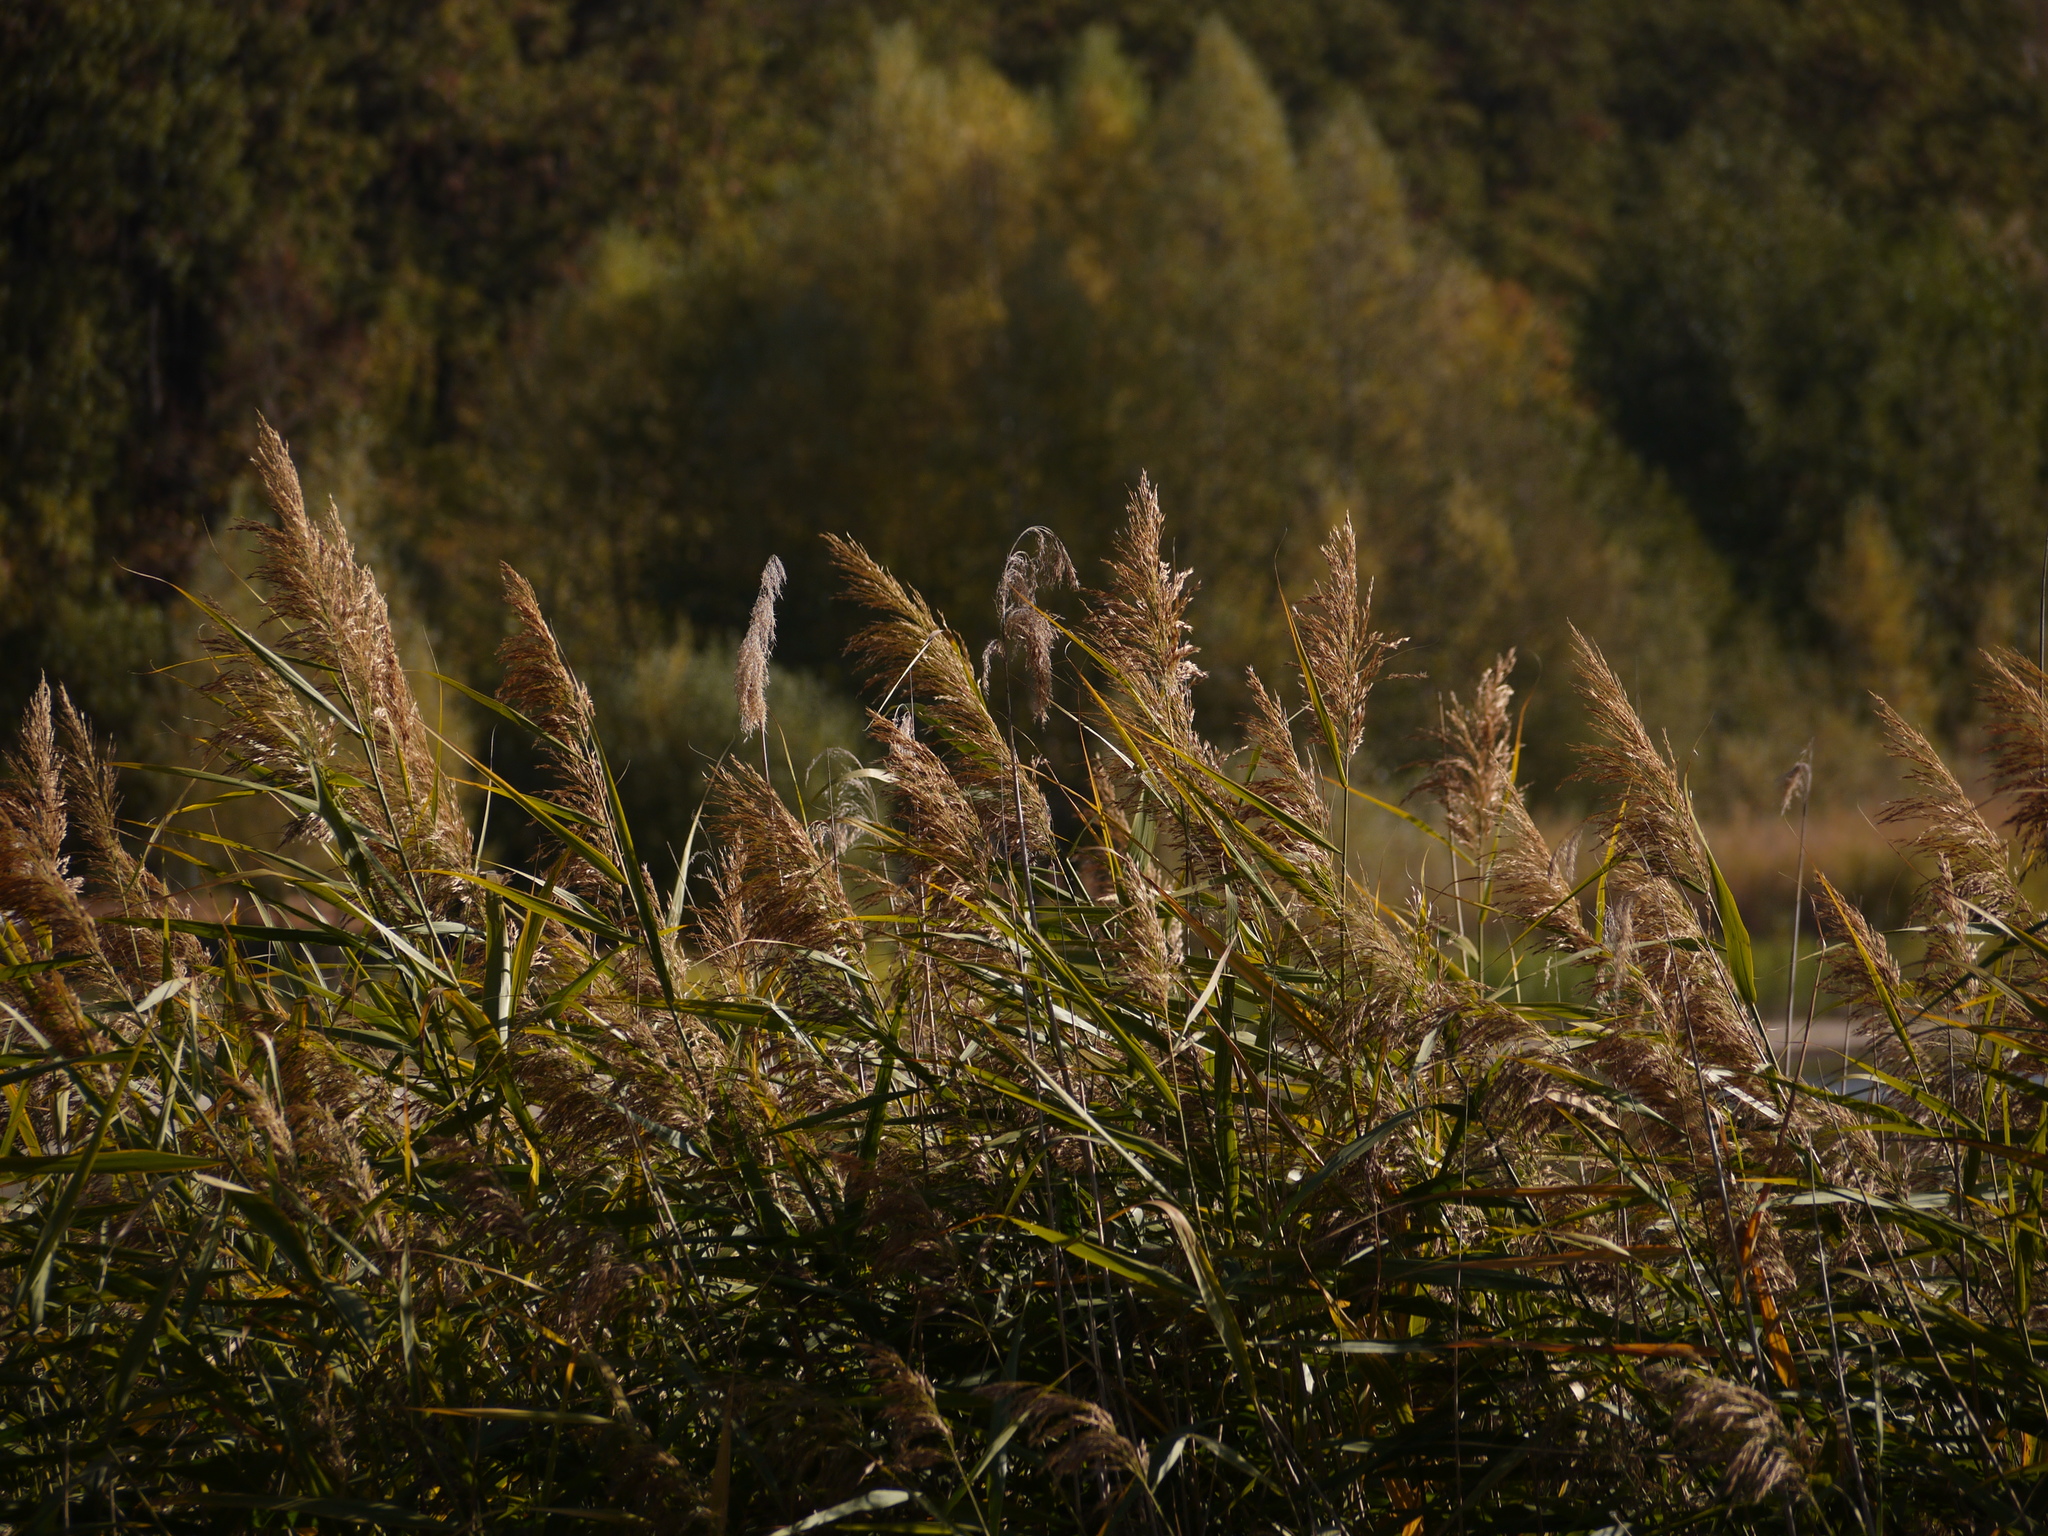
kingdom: Plantae
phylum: Tracheophyta
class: Liliopsida
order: Poales
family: Poaceae
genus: Phragmites
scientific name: Phragmites australis
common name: Common reed
